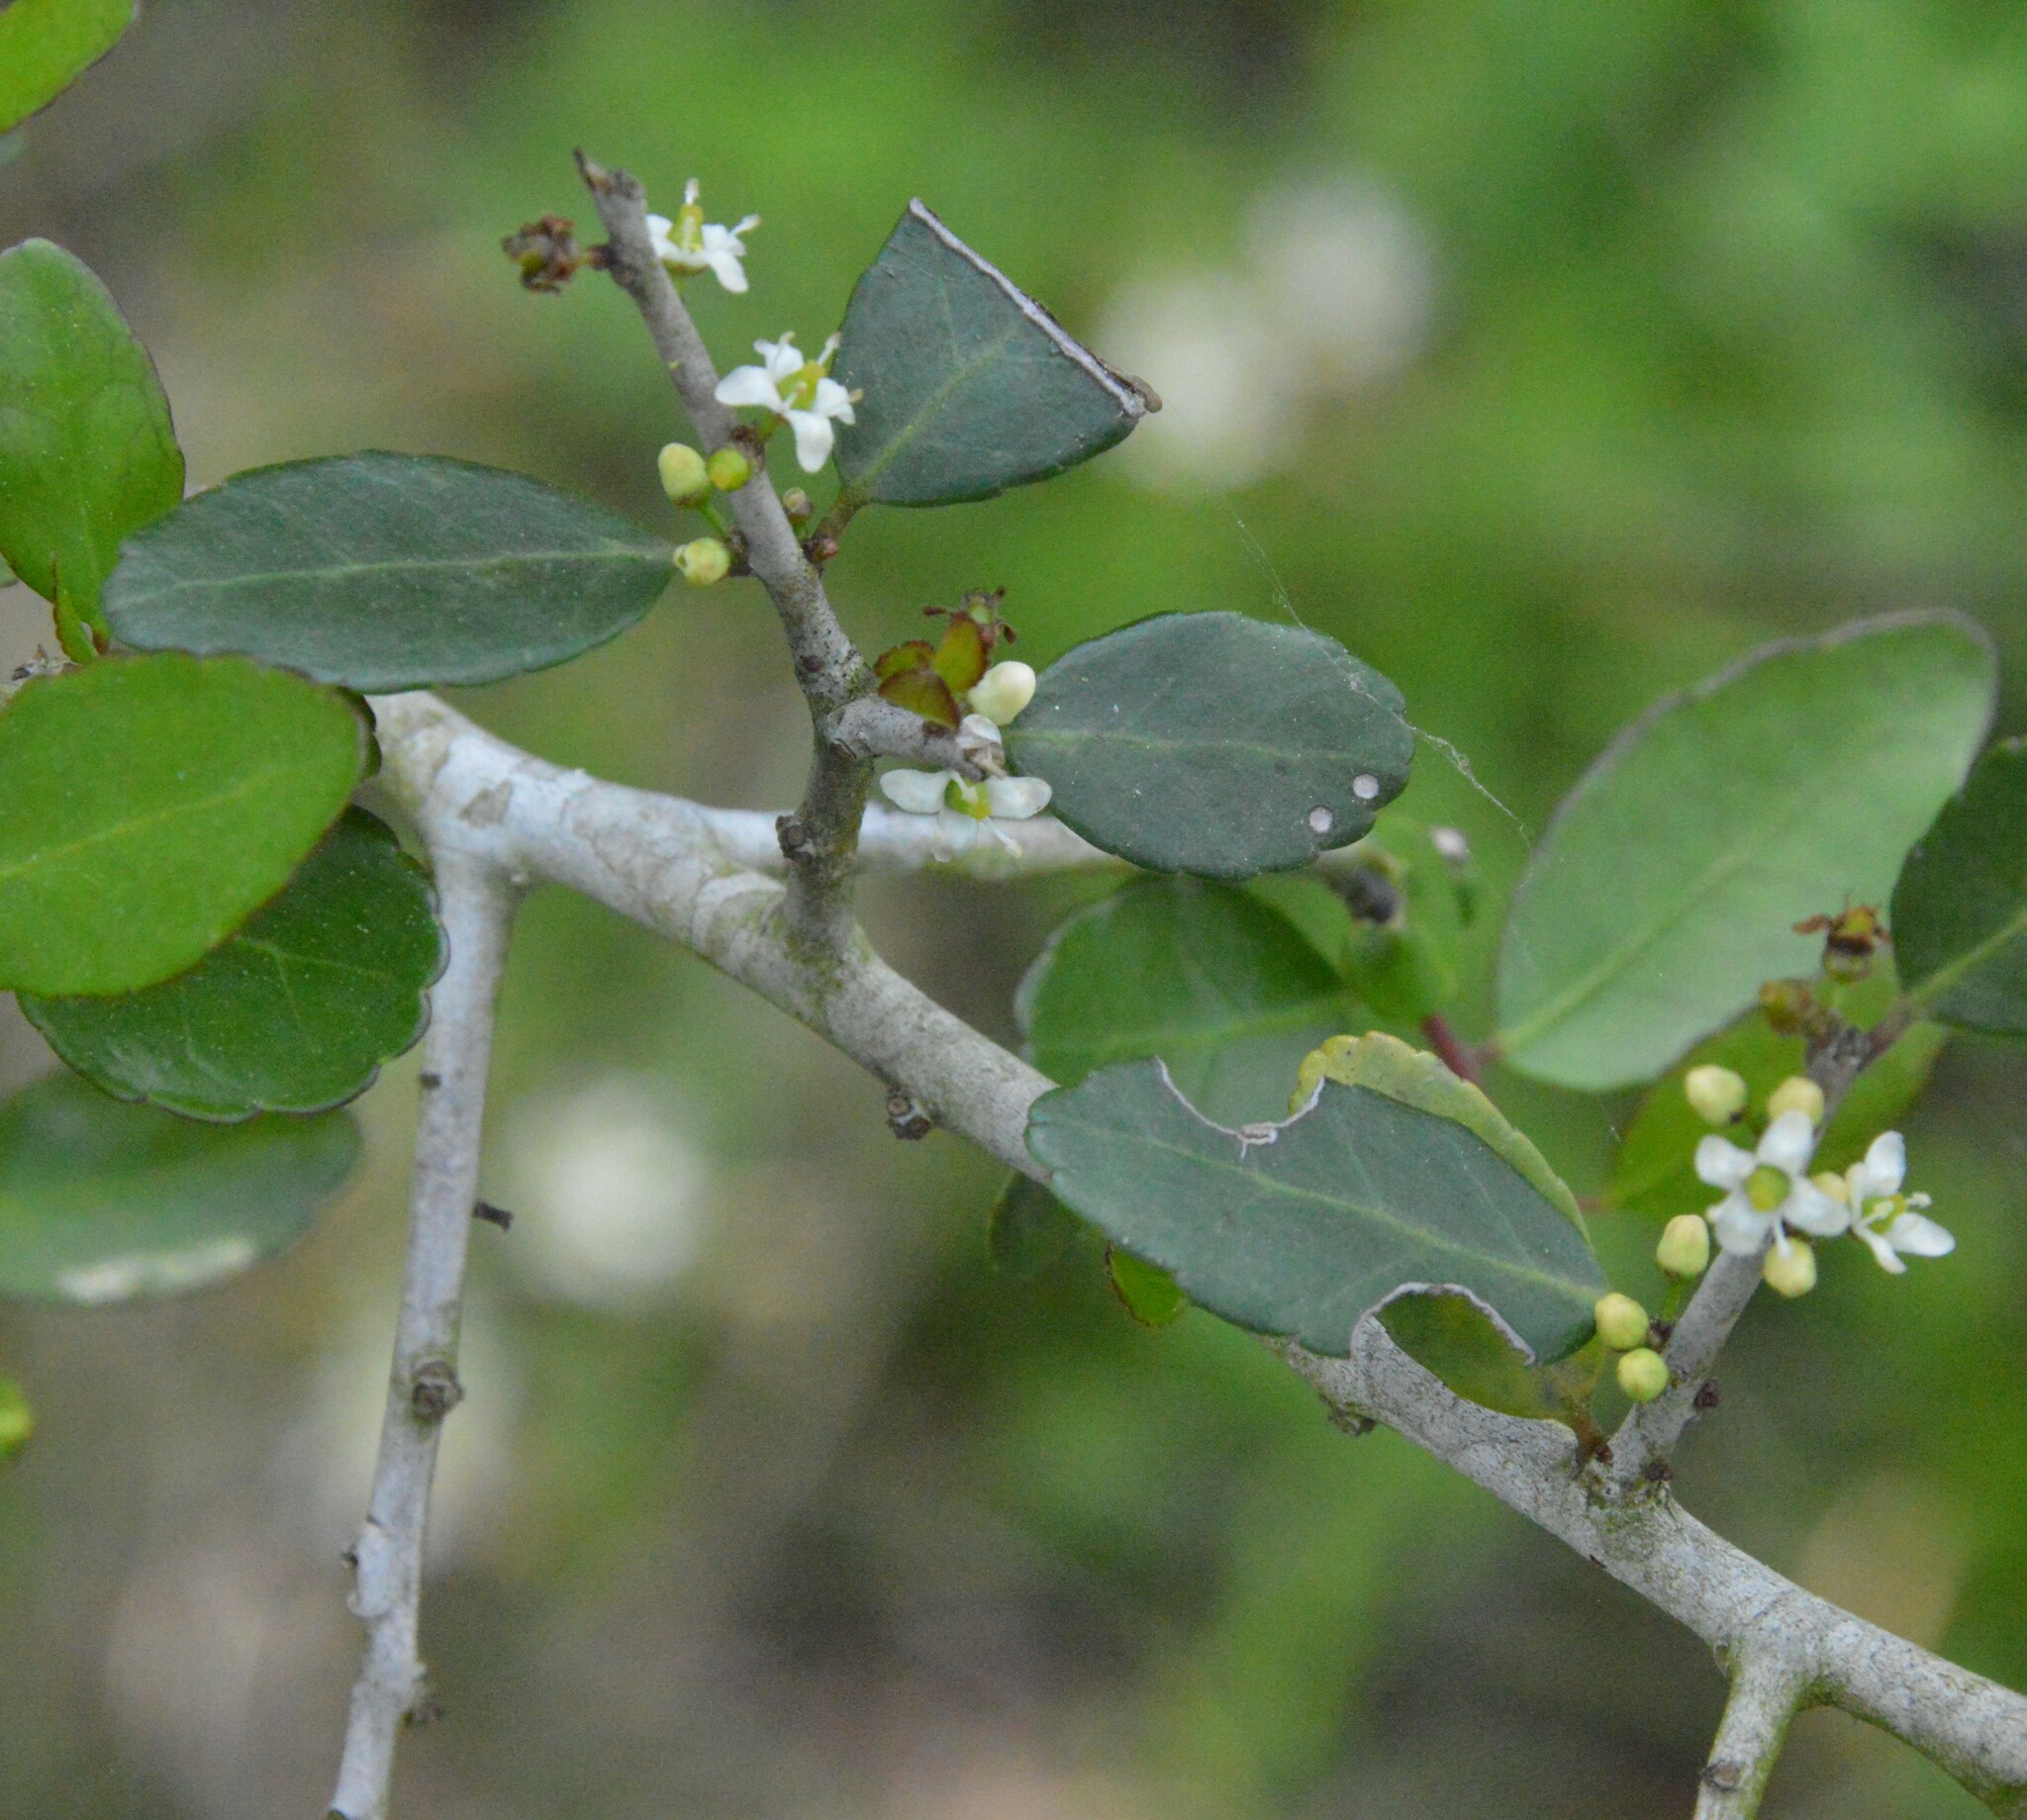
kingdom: Plantae
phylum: Tracheophyta
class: Magnoliopsida
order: Aquifoliales
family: Aquifoliaceae
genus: Ilex
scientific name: Ilex vomitoria
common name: Yaupon holly
